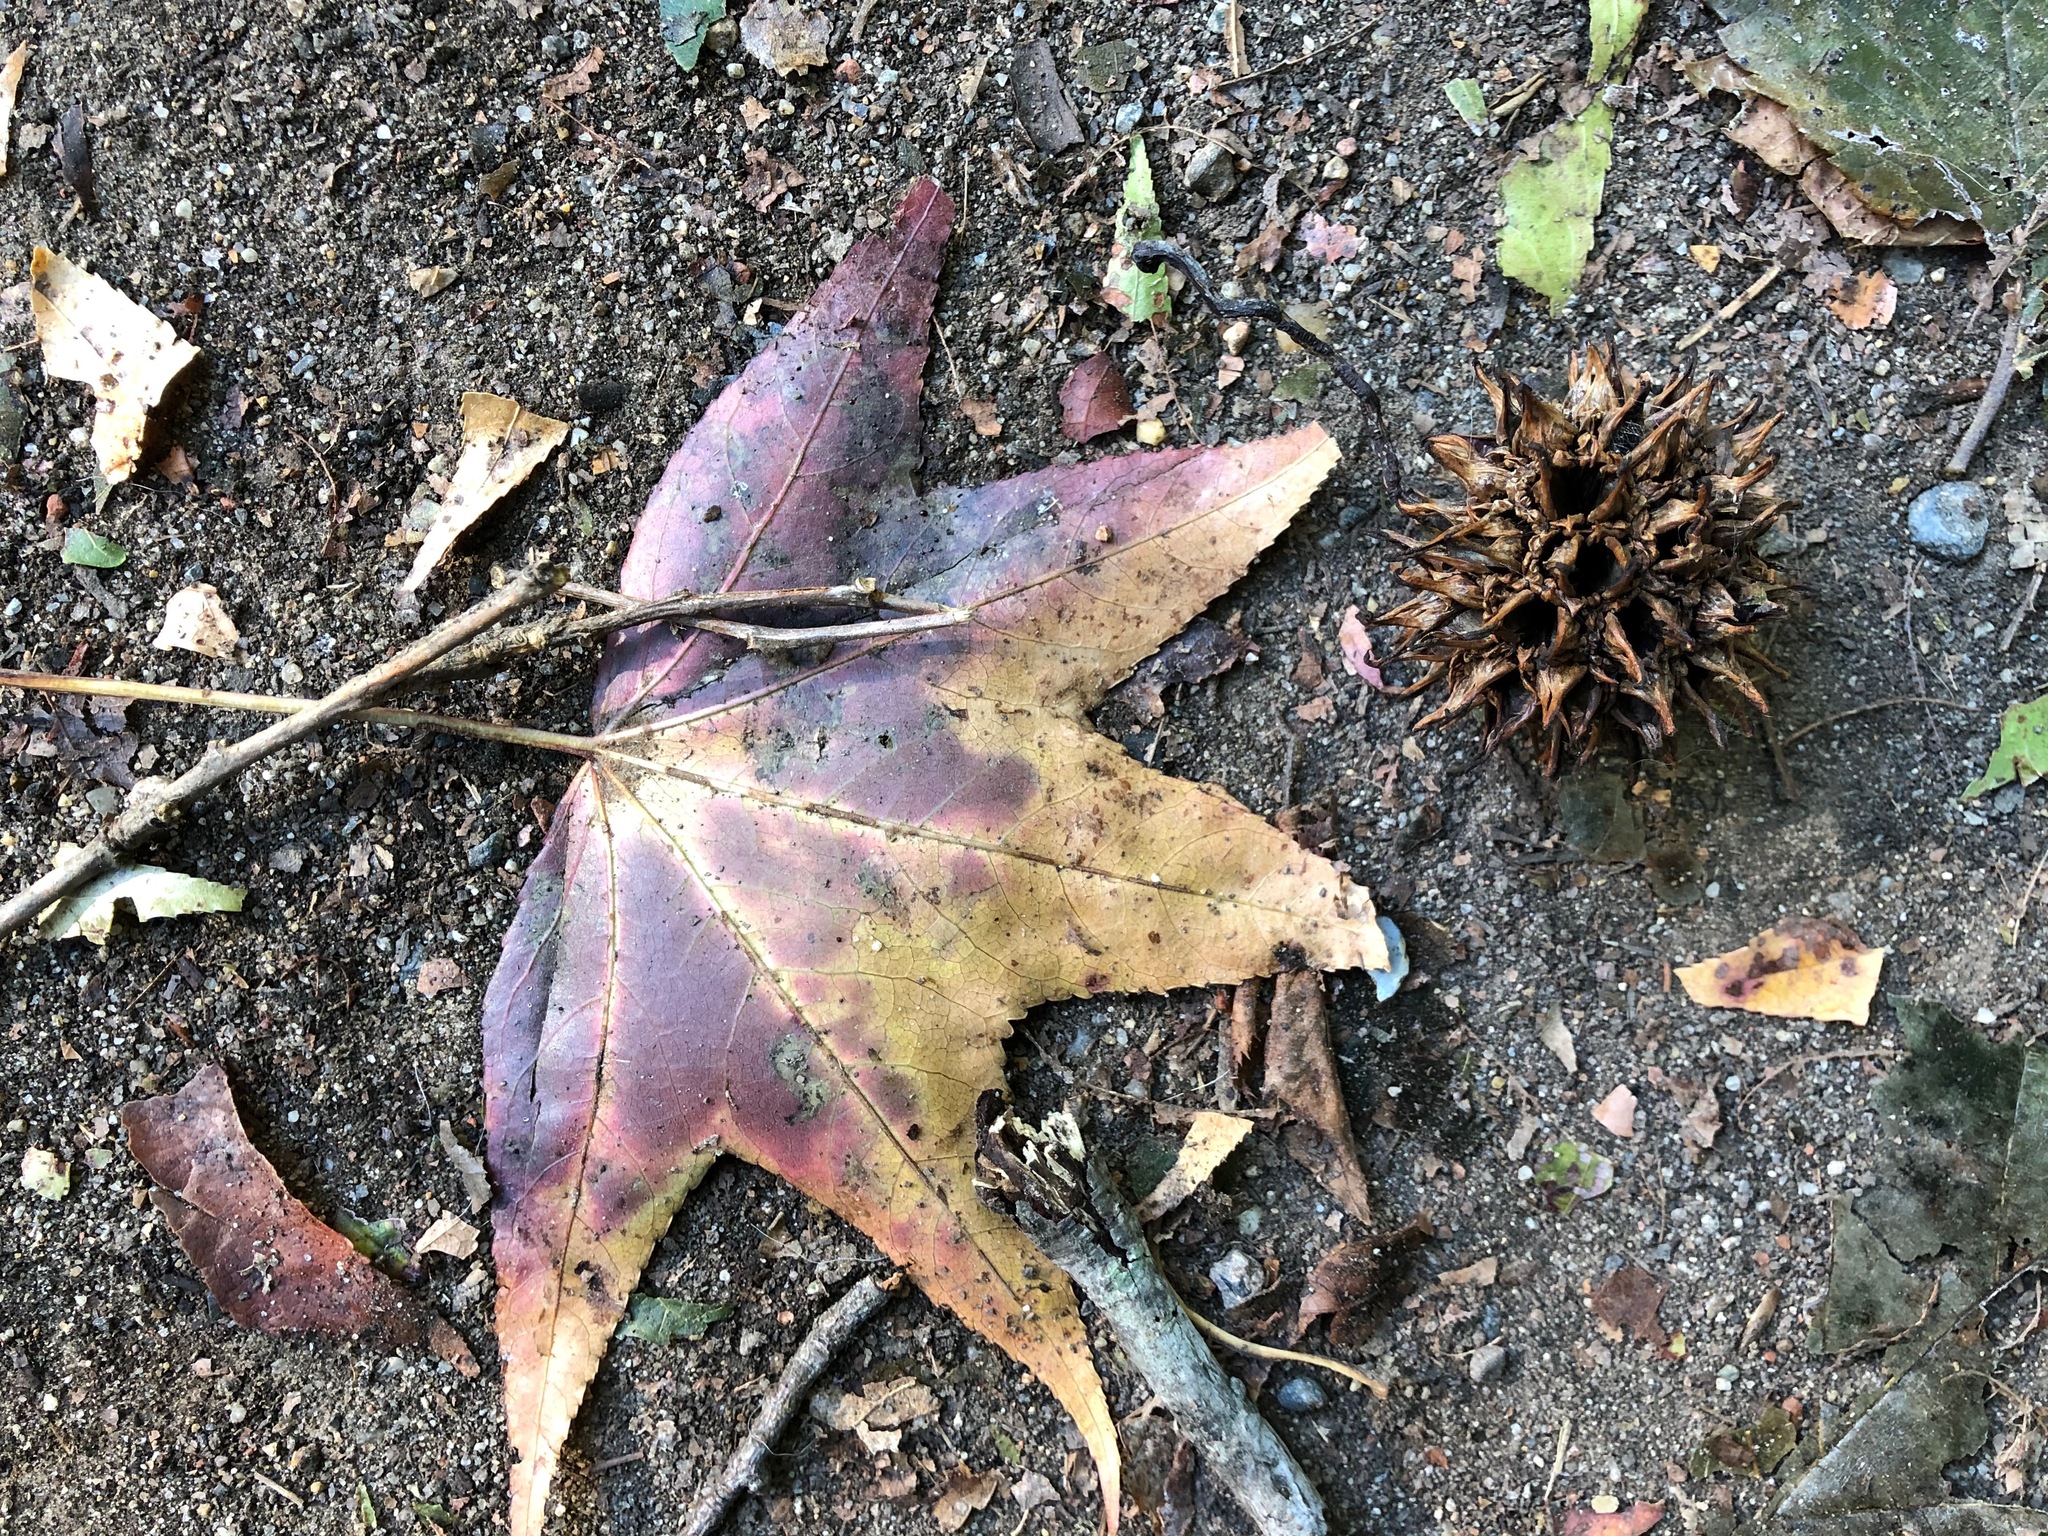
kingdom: Plantae
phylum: Tracheophyta
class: Magnoliopsida
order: Saxifragales
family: Altingiaceae
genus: Liquidambar
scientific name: Liquidambar styraciflua
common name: Sweet gum
